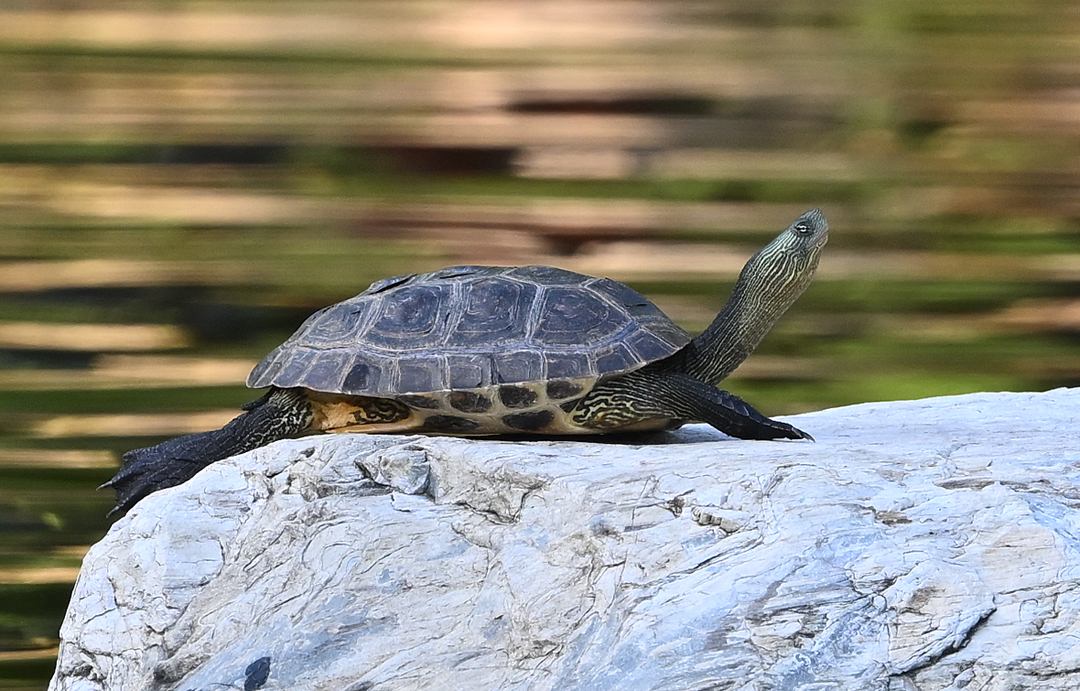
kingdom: Animalia
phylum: Chordata
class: Testudines
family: Geoemydidae
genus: Mauremys
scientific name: Mauremys sinensis
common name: Chinese stripe-necked turtle
